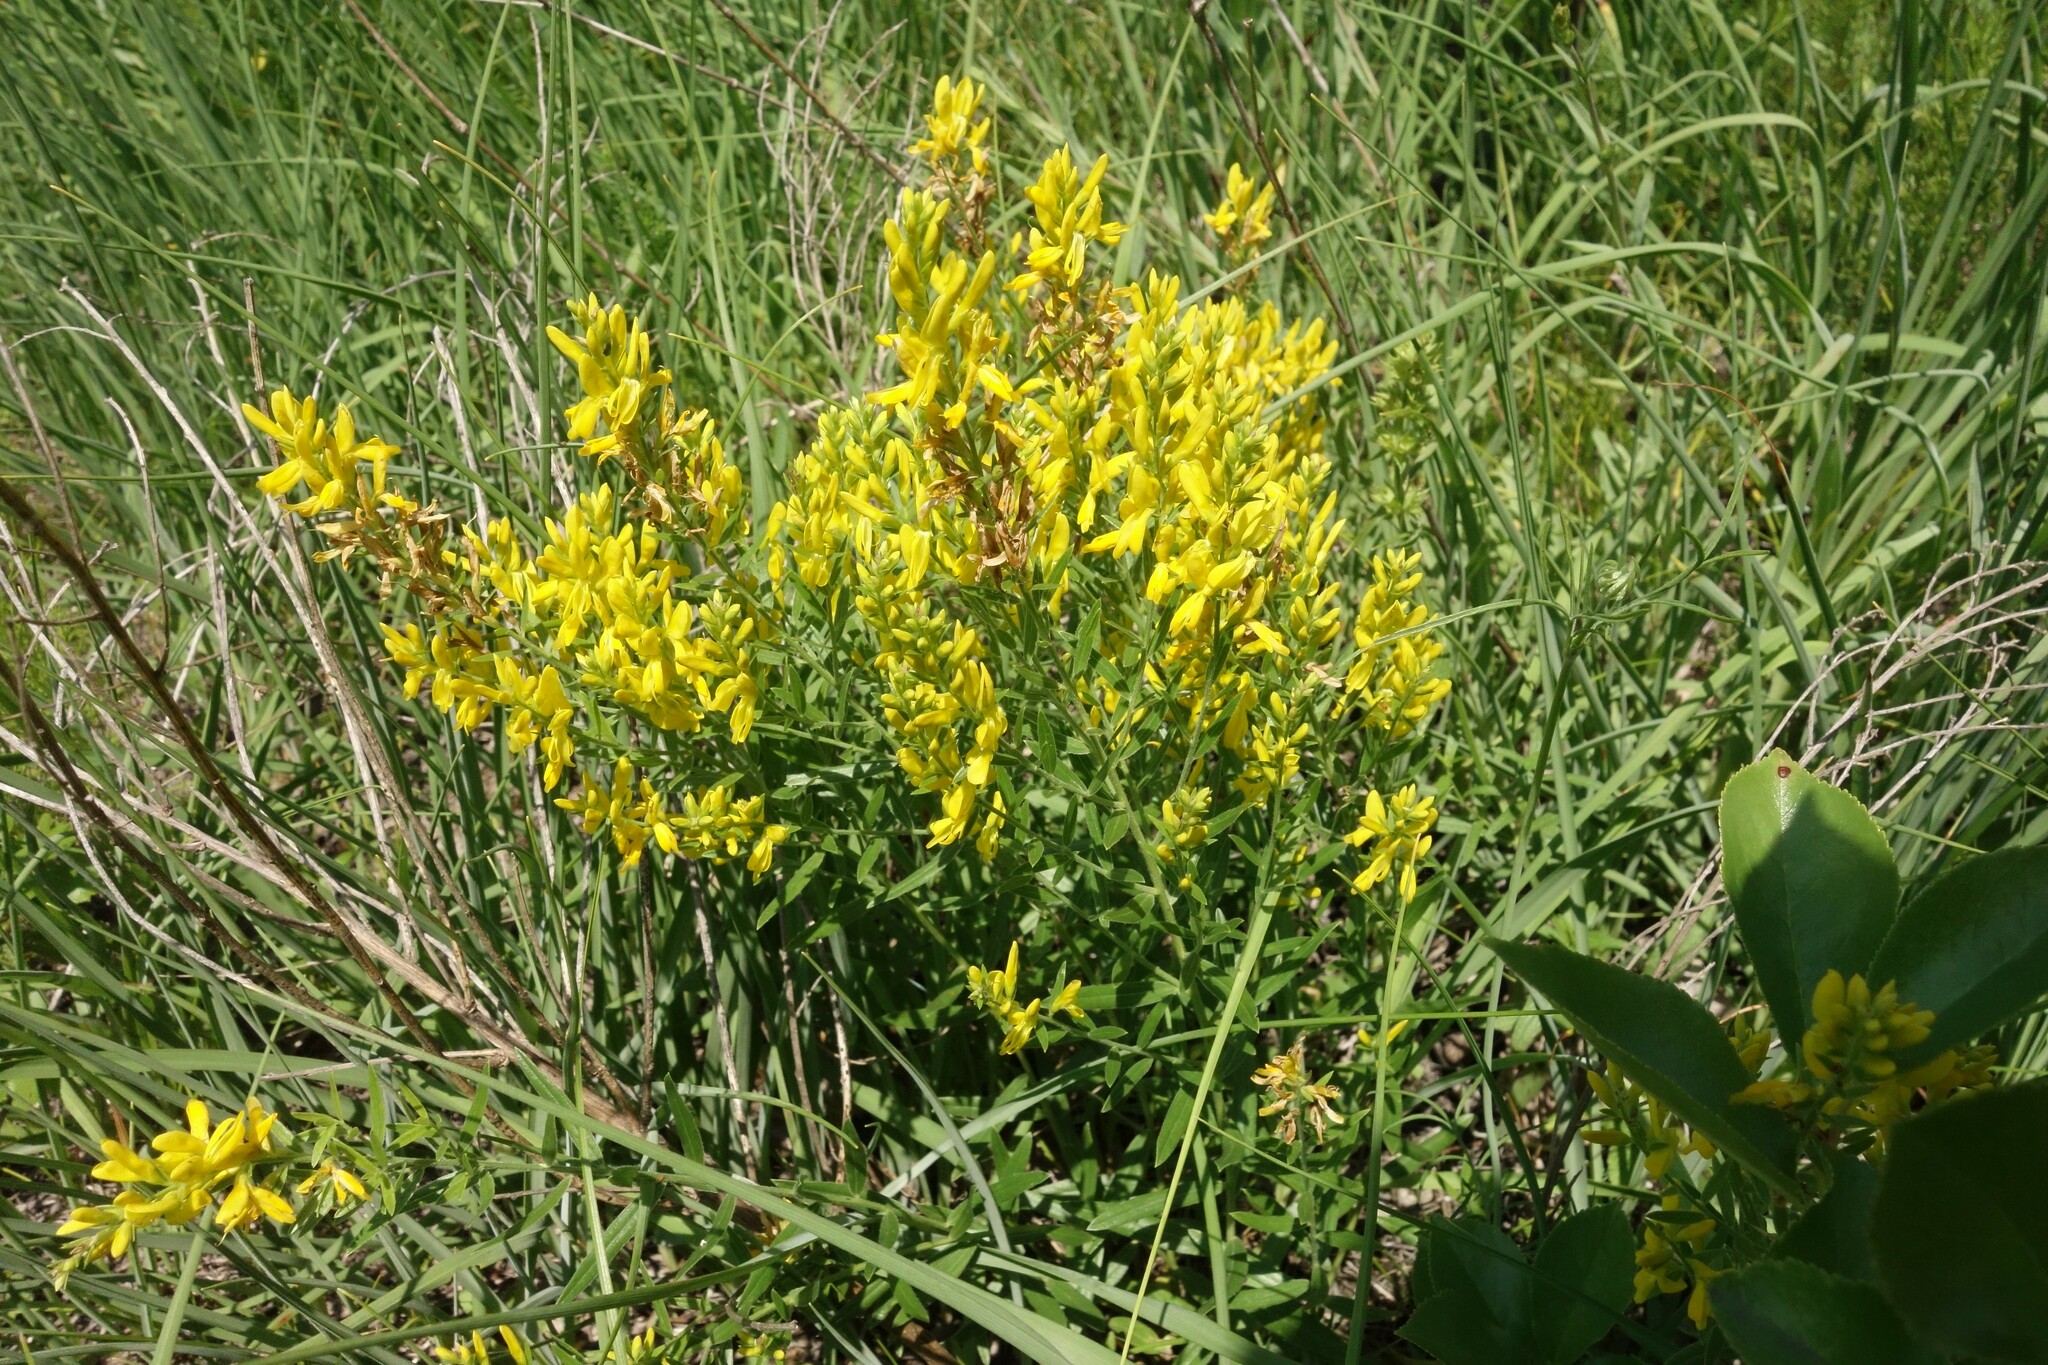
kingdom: Plantae
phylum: Tracheophyta
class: Magnoliopsida
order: Fabales
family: Fabaceae
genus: Genista
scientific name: Genista tinctoria
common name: Dyer's greenweed
